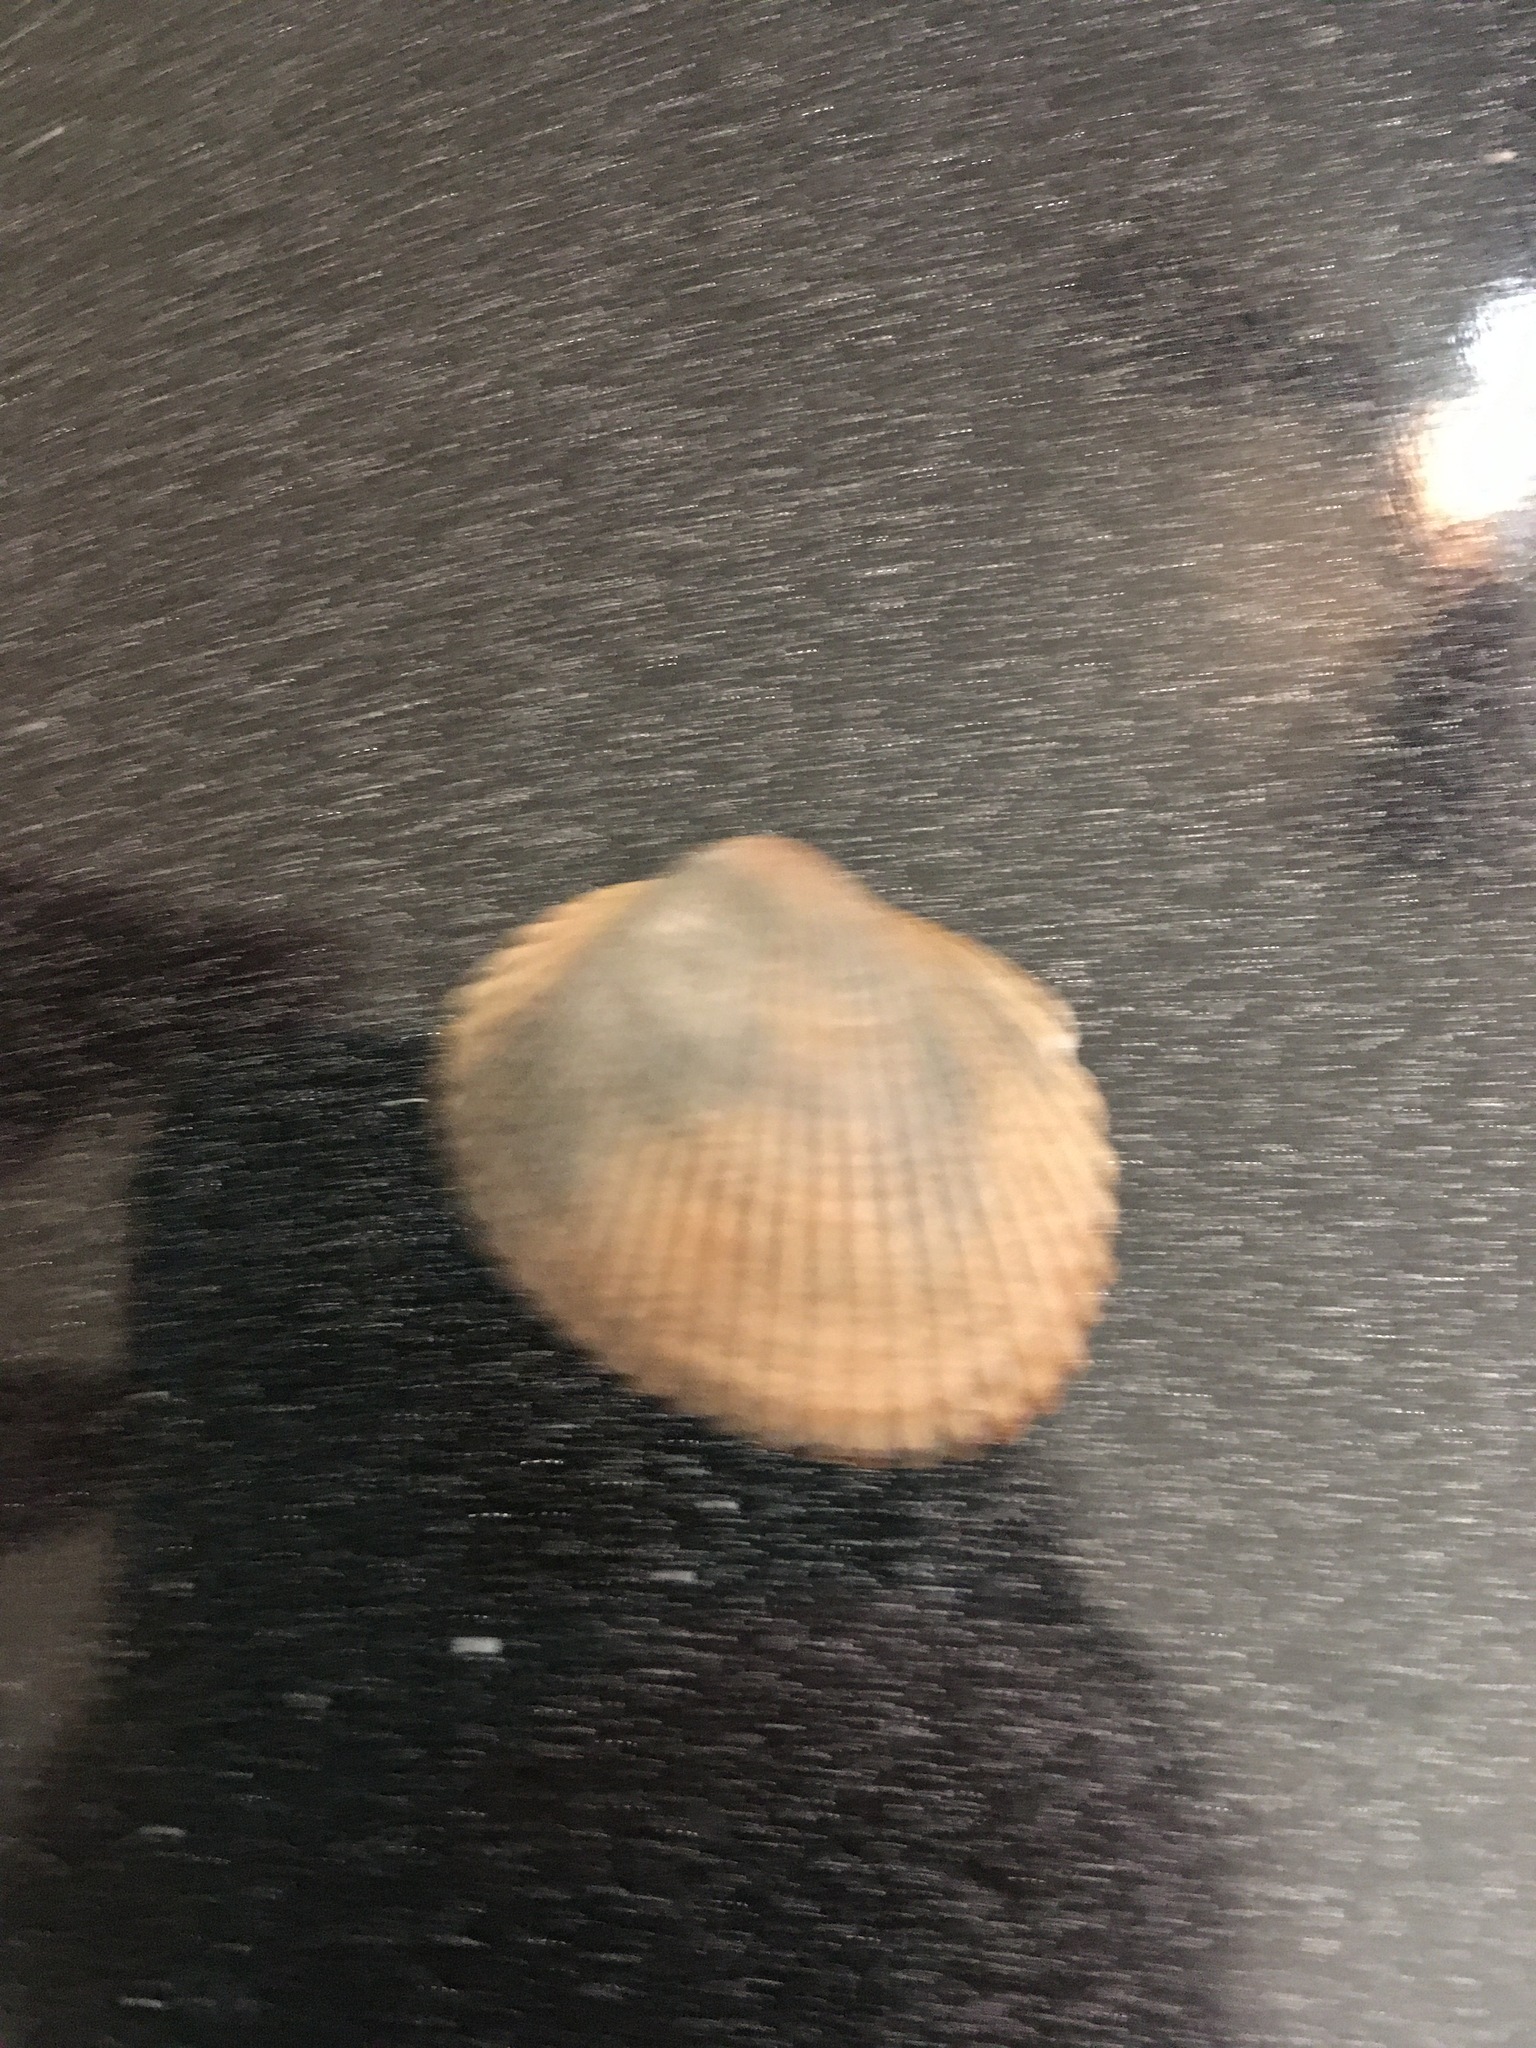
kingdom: Animalia
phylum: Mollusca
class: Bivalvia
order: Arcida
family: Arcidae
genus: Lunarca
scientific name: Lunarca ovalis
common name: Blood ark
